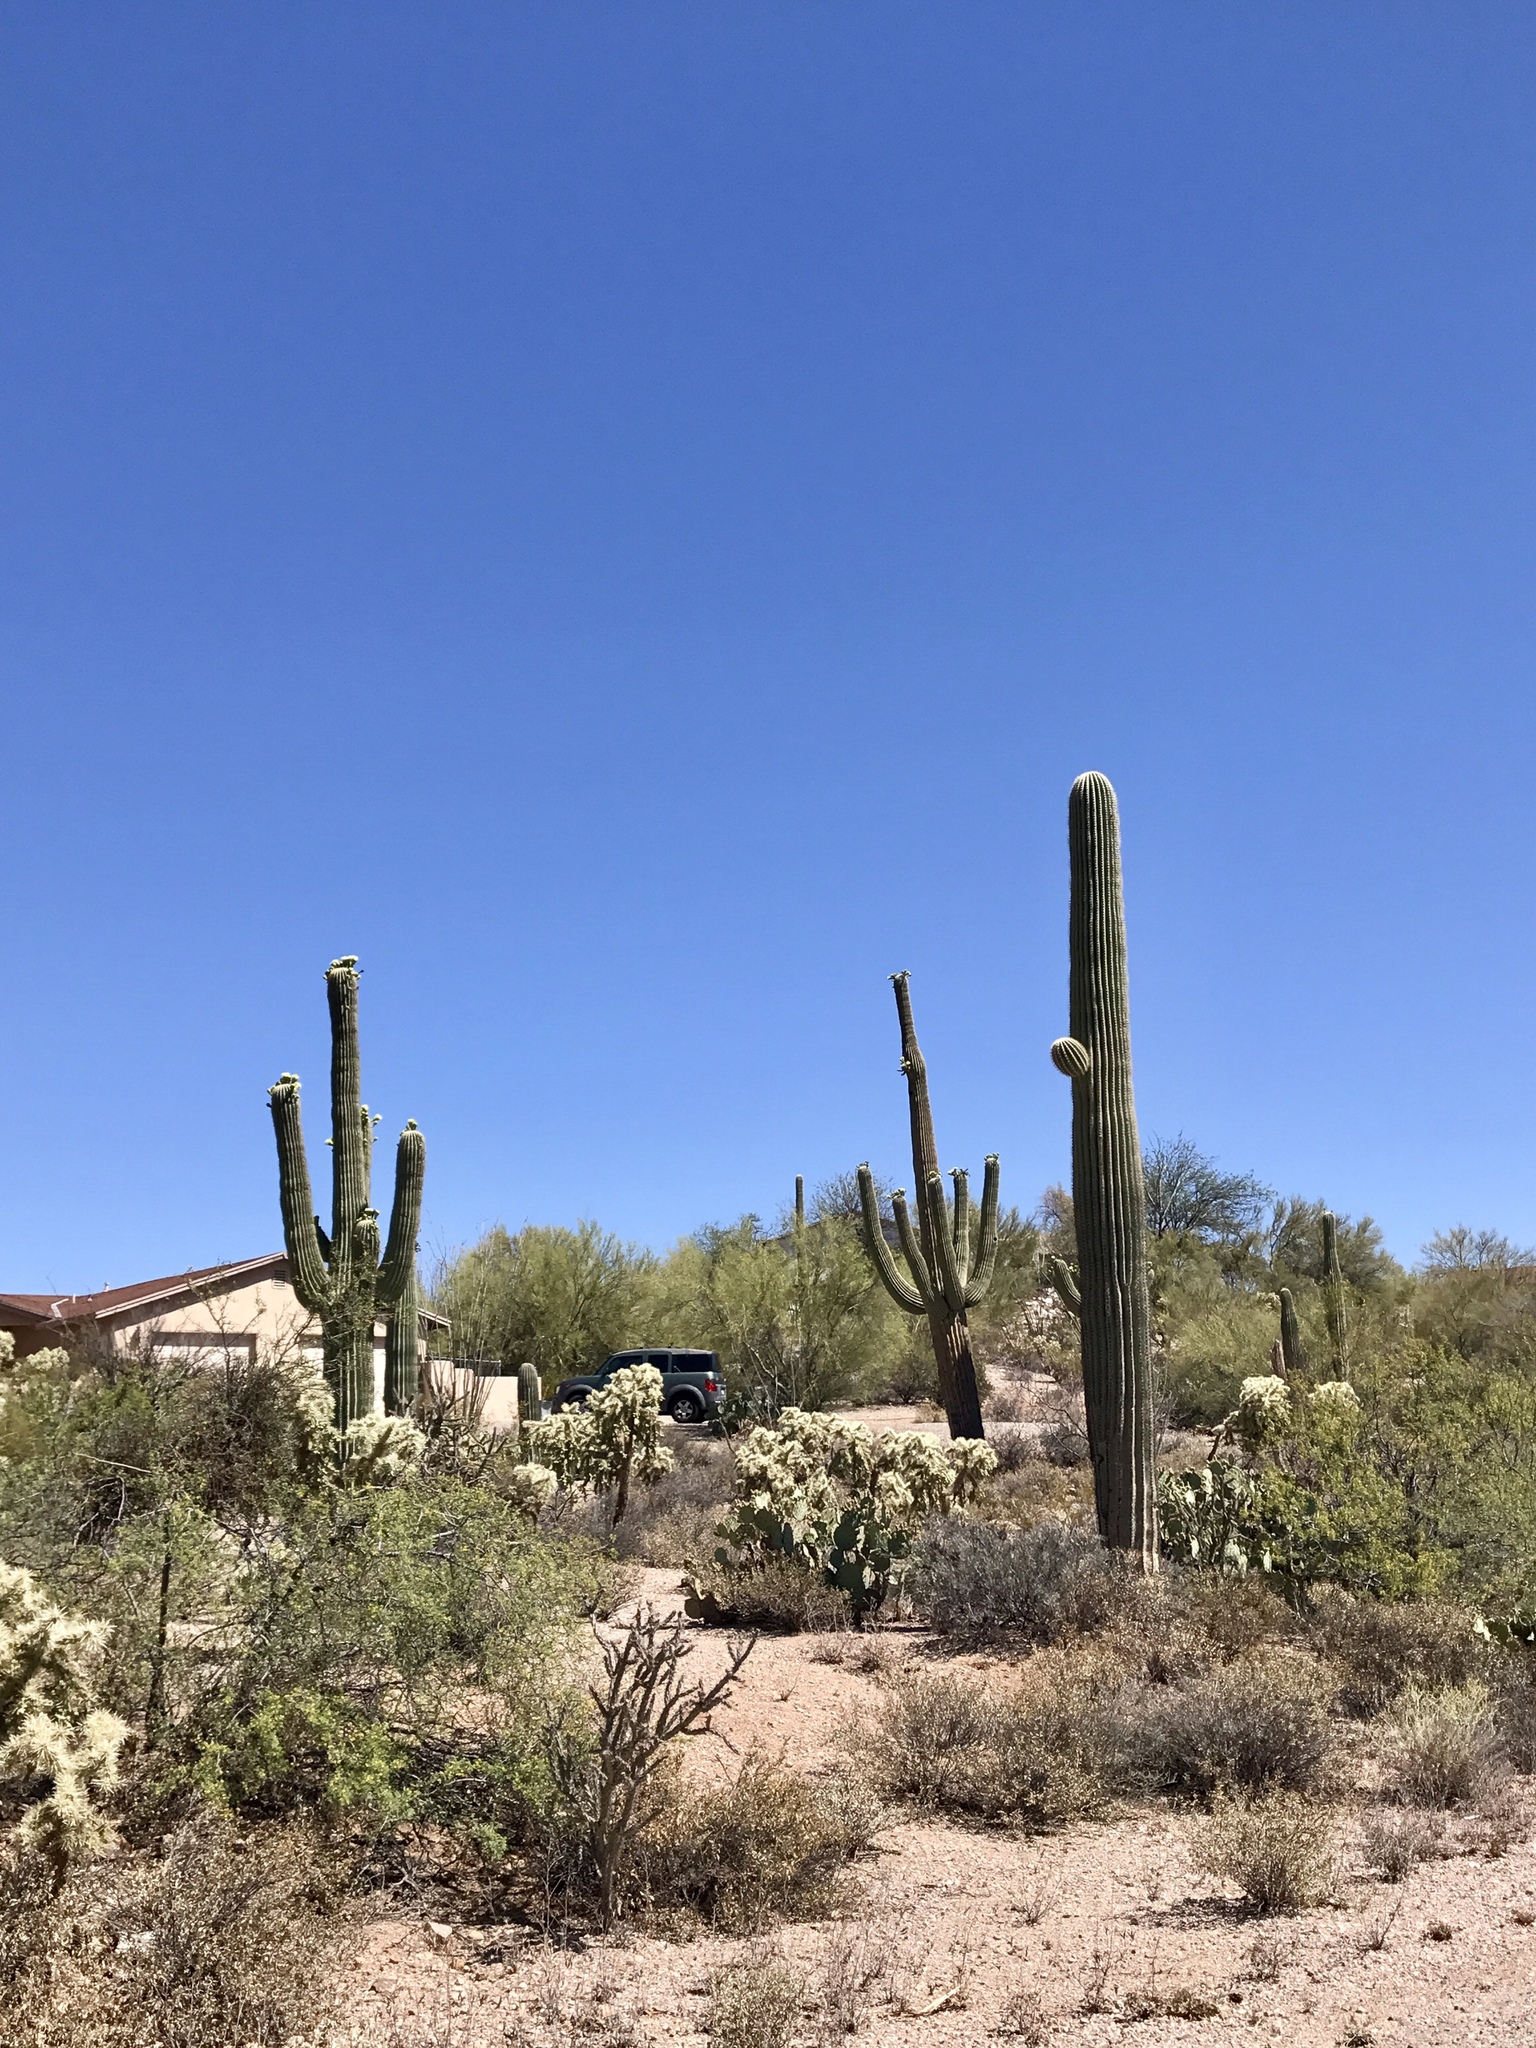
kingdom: Plantae
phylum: Tracheophyta
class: Magnoliopsida
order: Caryophyllales
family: Cactaceae
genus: Carnegiea
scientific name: Carnegiea gigantea
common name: Saguaro
